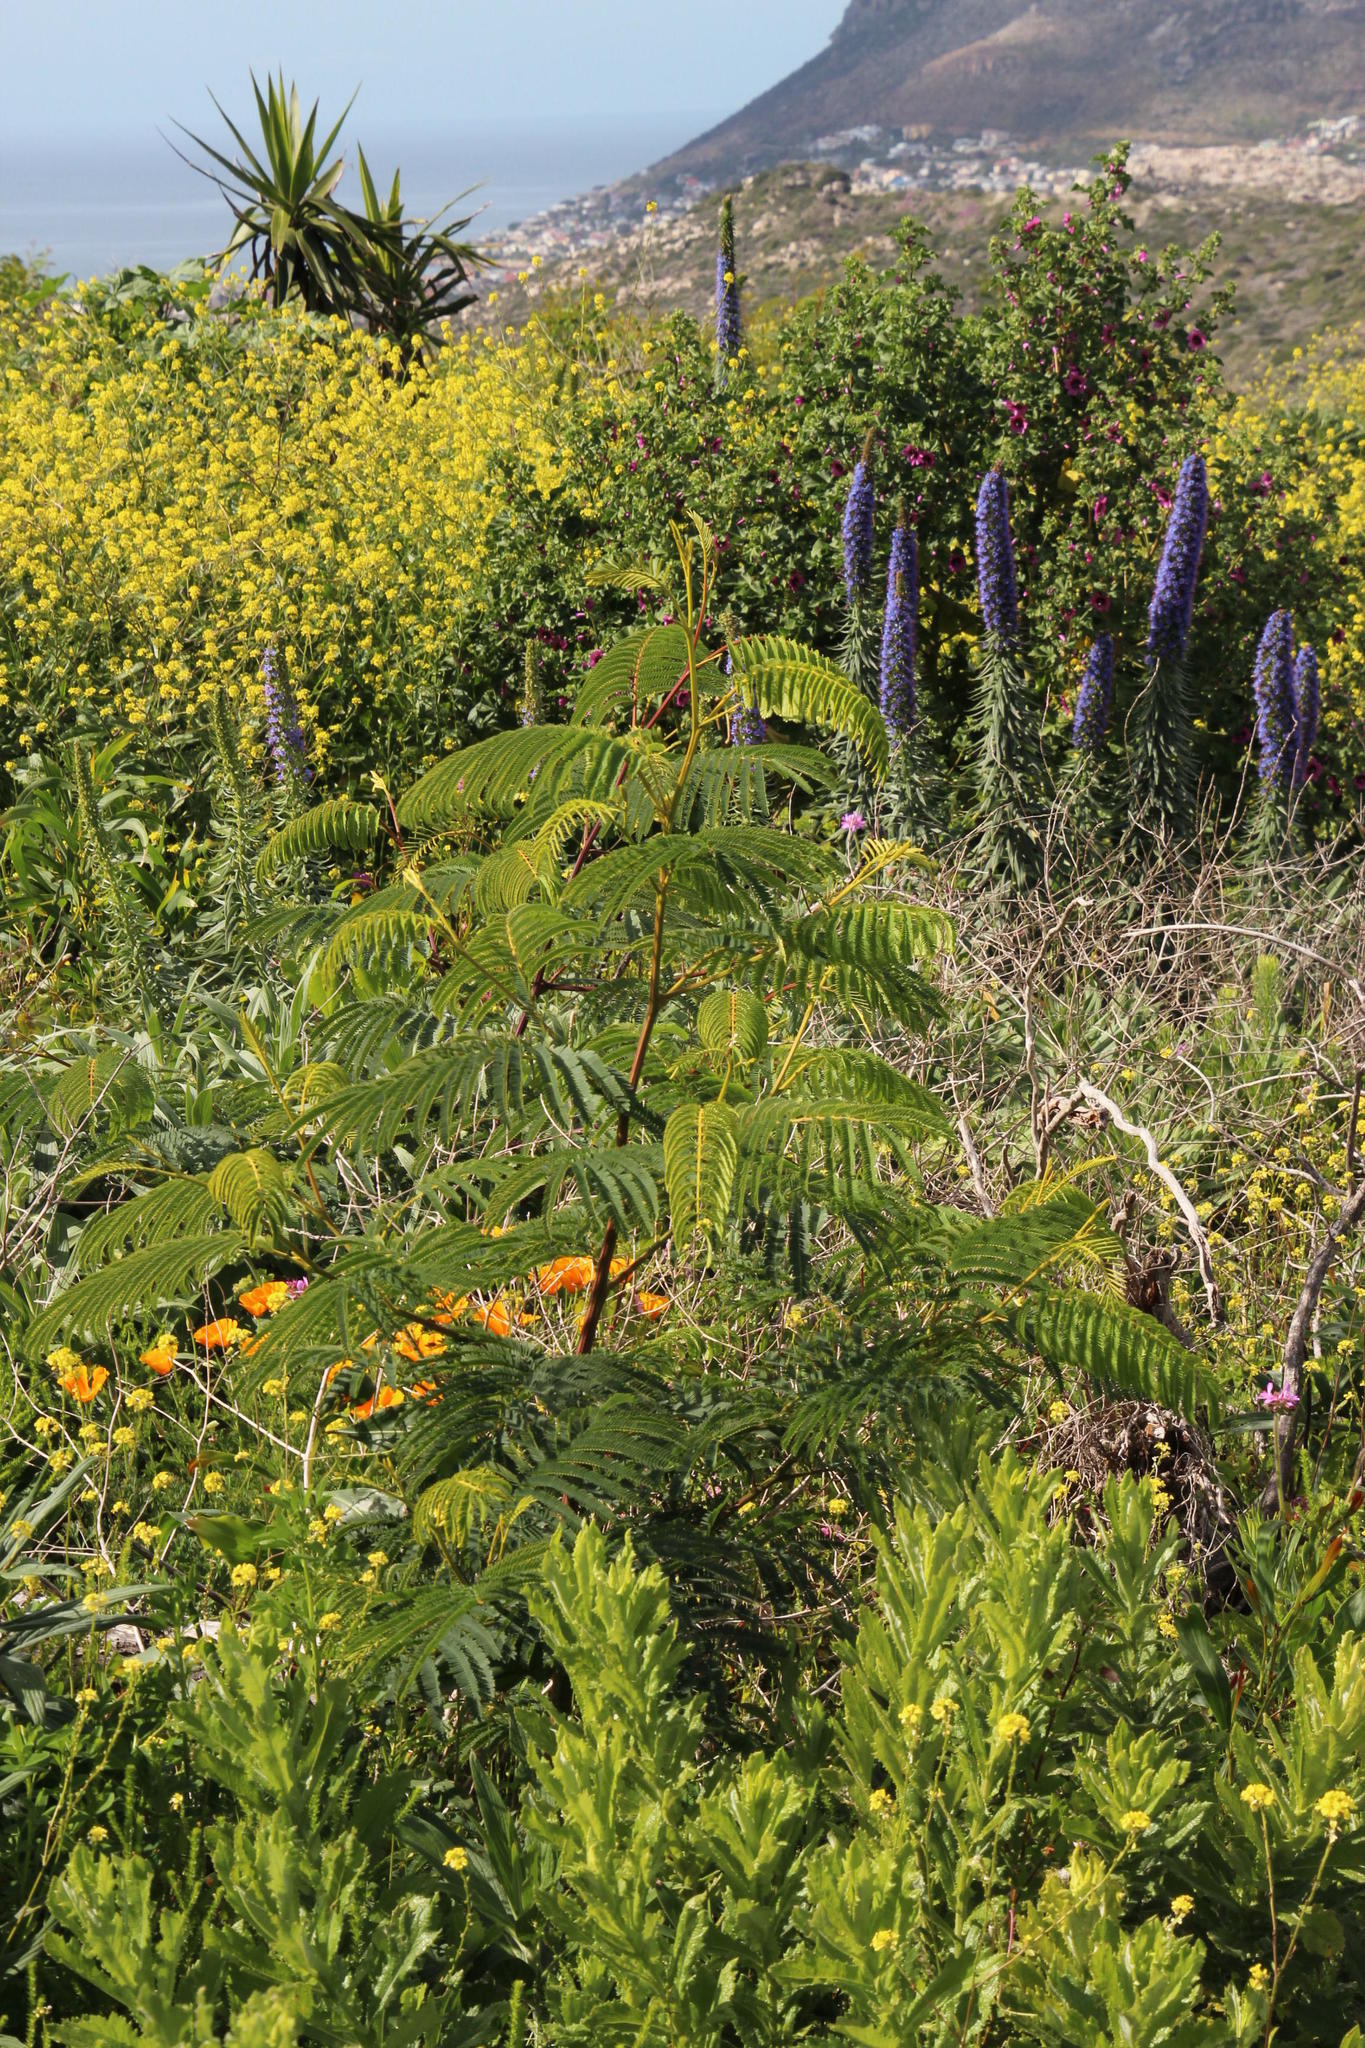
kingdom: Plantae
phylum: Tracheophyta
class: Magnoliopsida
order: Fabales
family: Fabaceae
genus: Paraserianthes
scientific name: Paraserianthes lophantha
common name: Plume albizia
